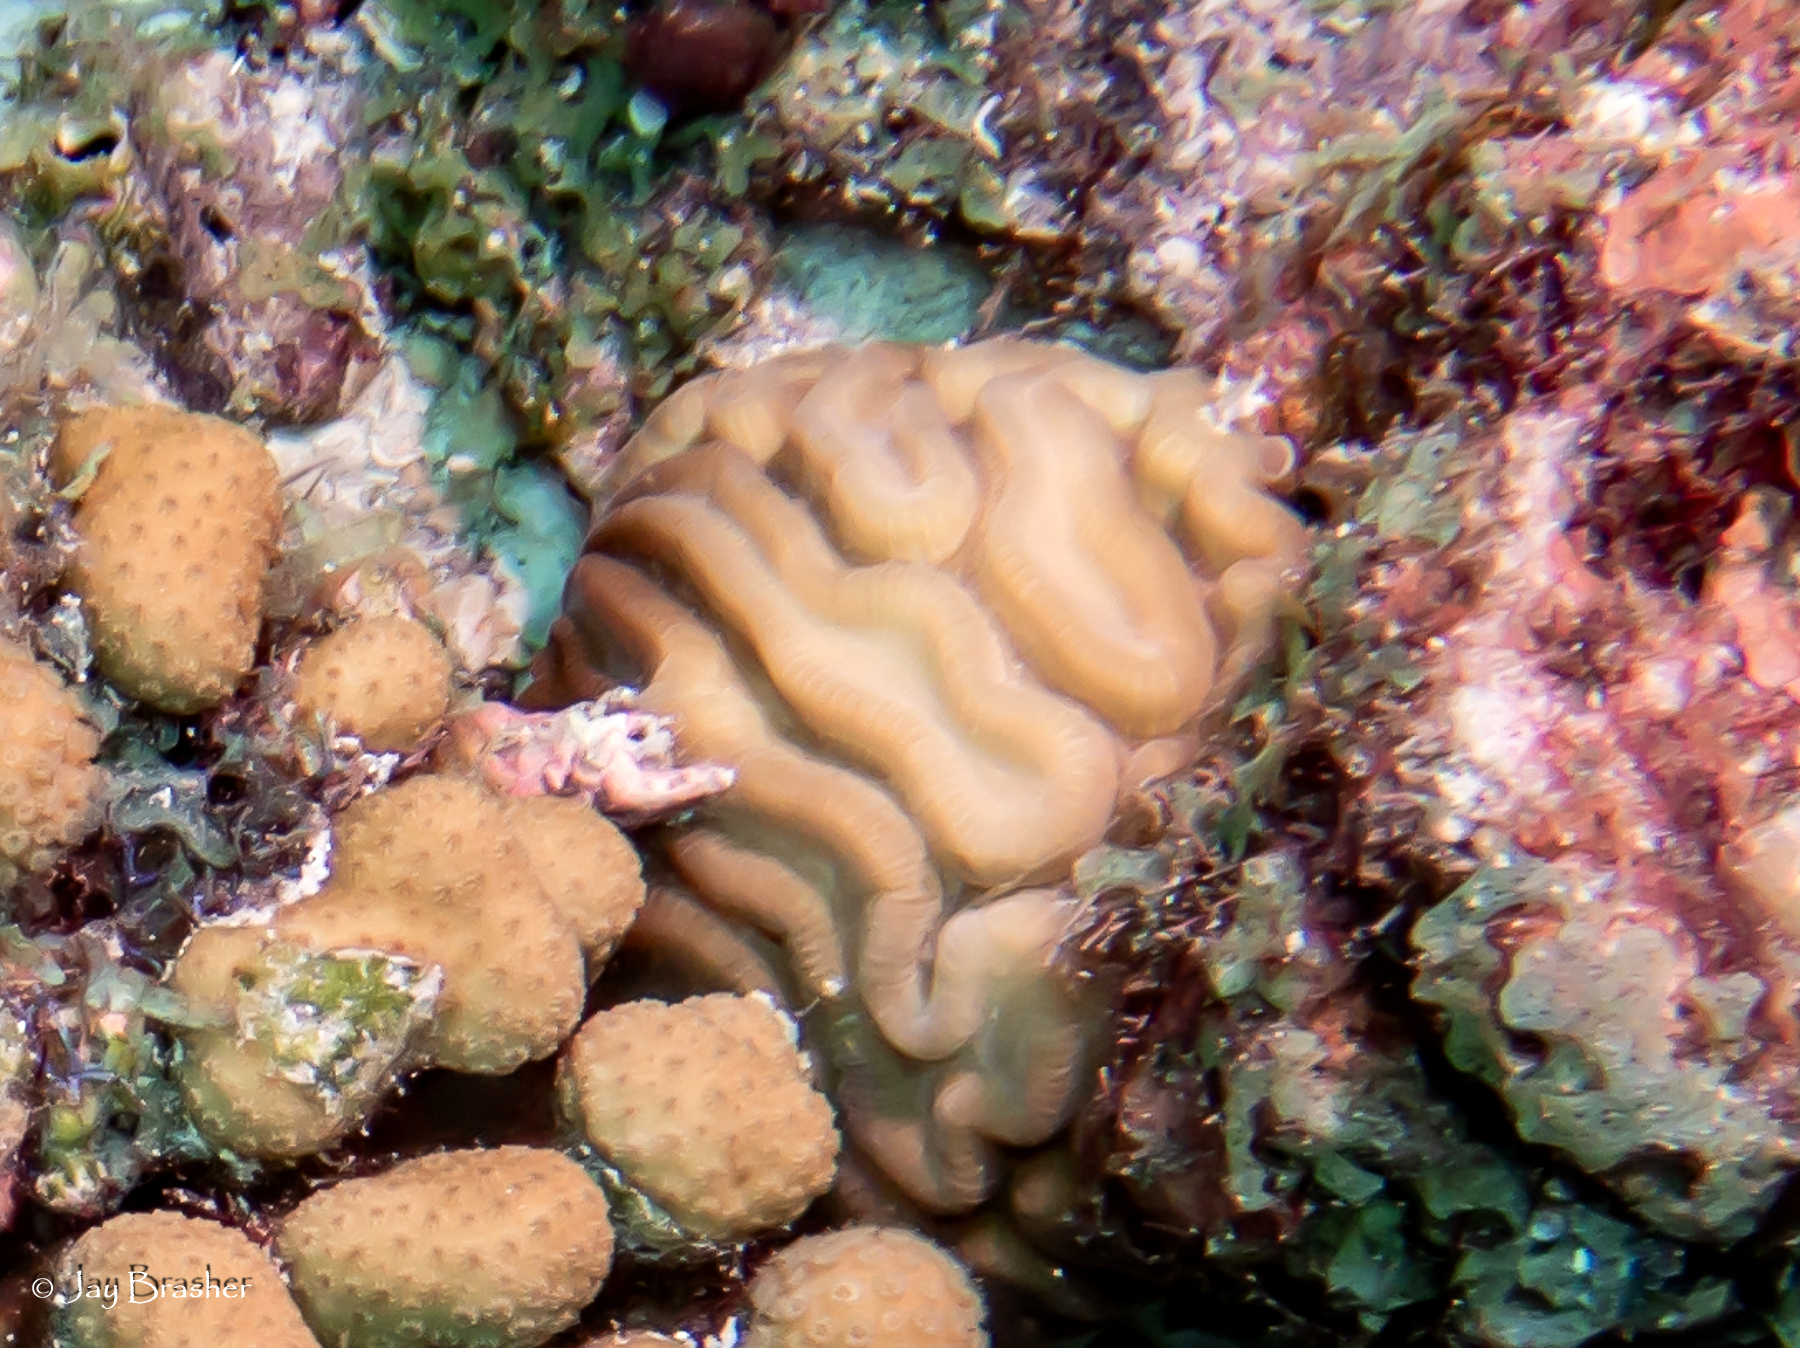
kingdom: Animalia
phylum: Cnidaria
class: Anthozoa
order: Scleractinia
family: Faviidae
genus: Diploria
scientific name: Diploria labyrinthiformis
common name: Grooved brain coral
